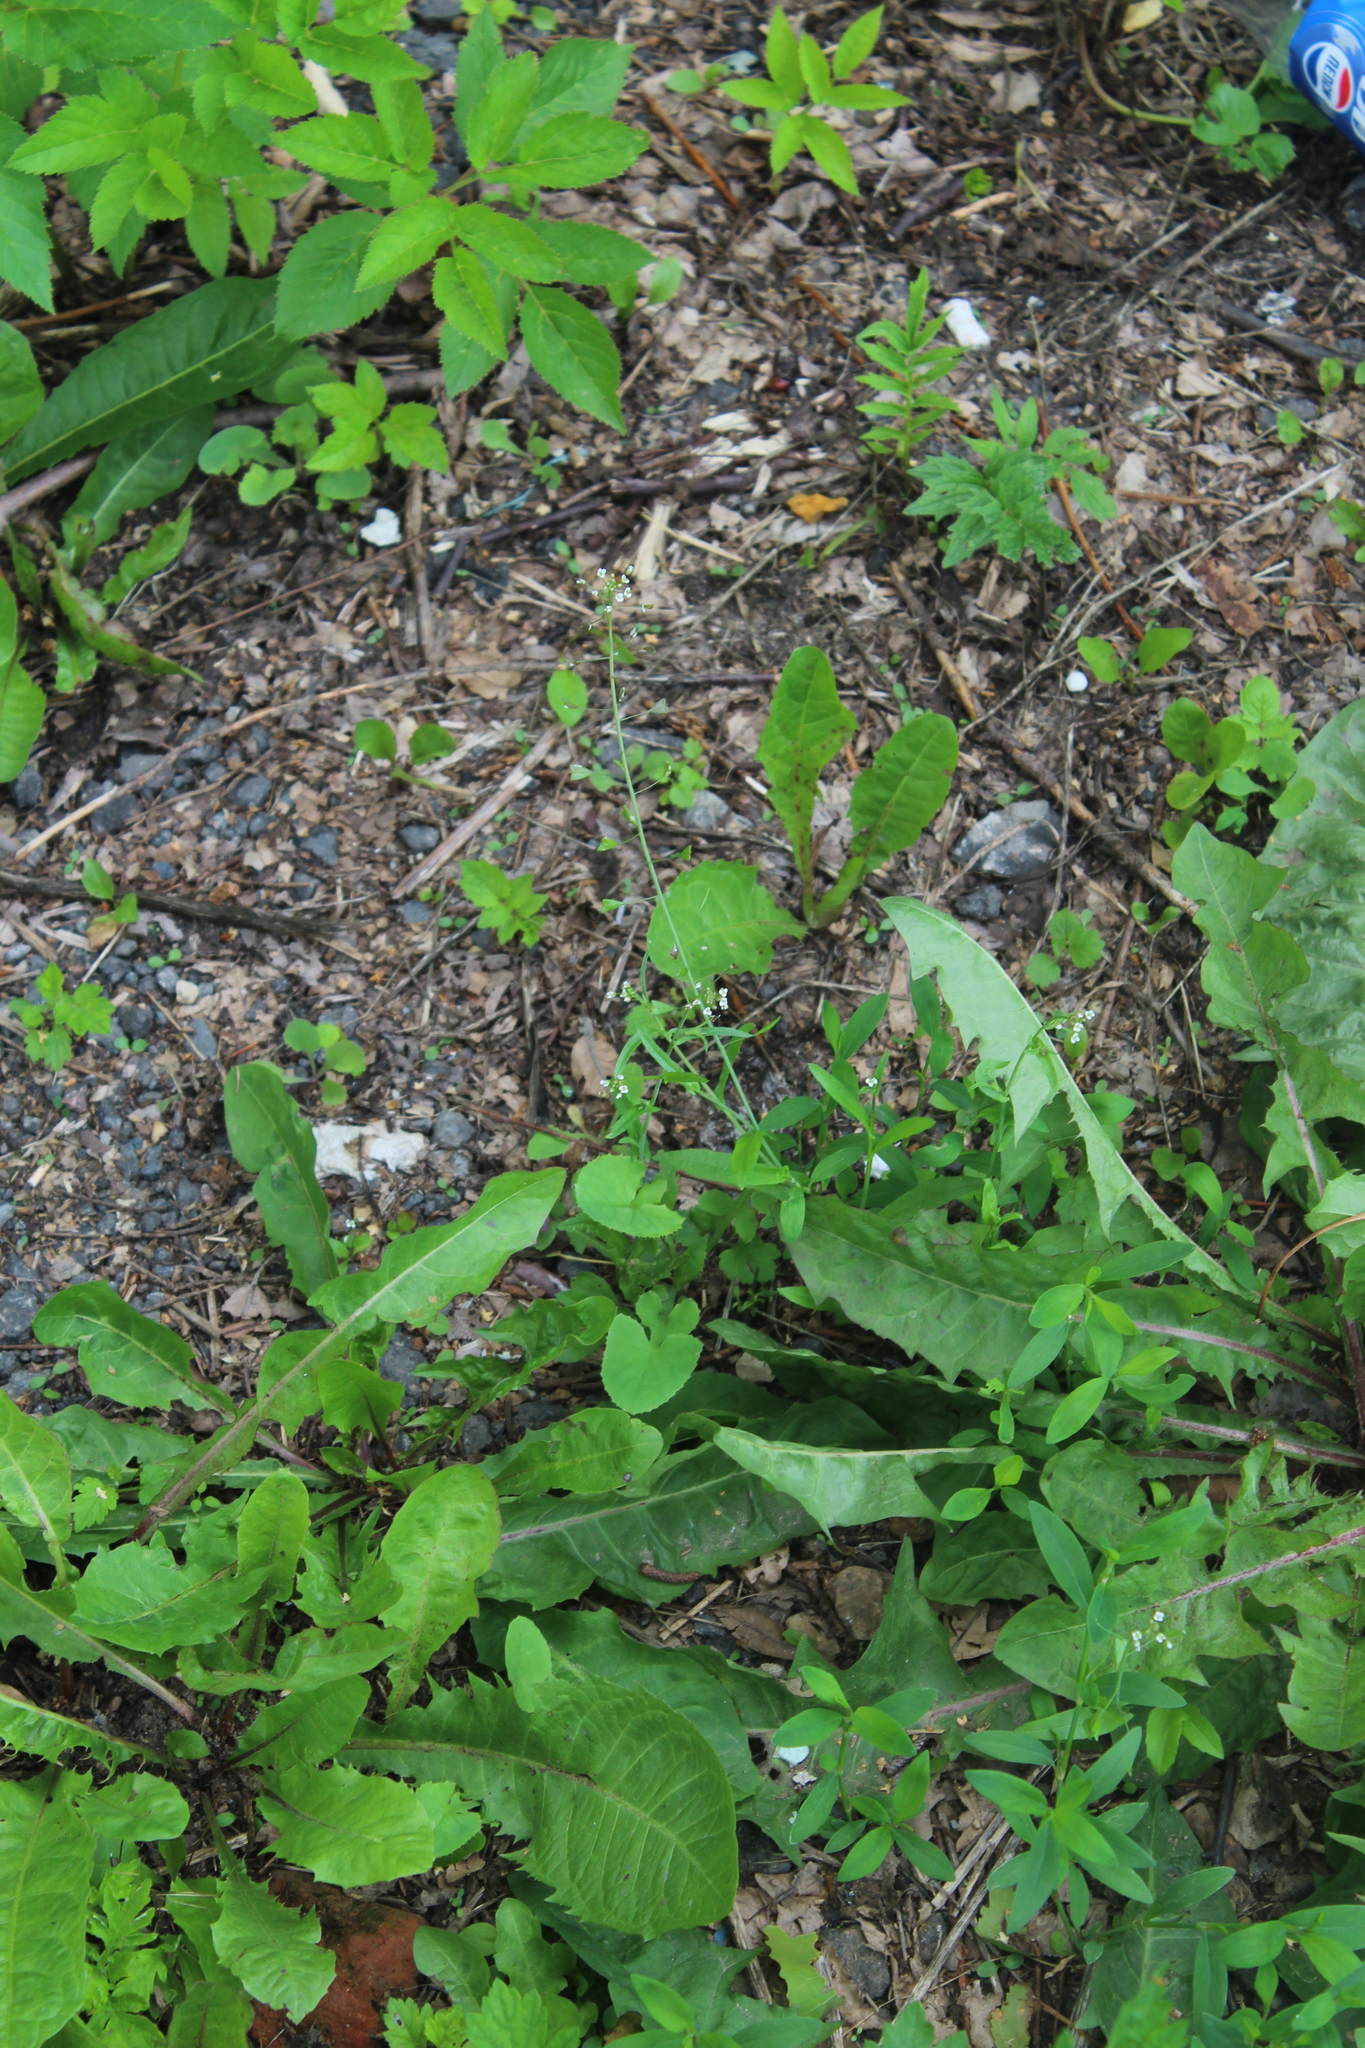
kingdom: Plantae
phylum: Tracheophyta
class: Magnoliopsida
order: Brassicales
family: Brassicaceae
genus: Capsella
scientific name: Capsella bursa-pastoris
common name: Shepherd's purse
